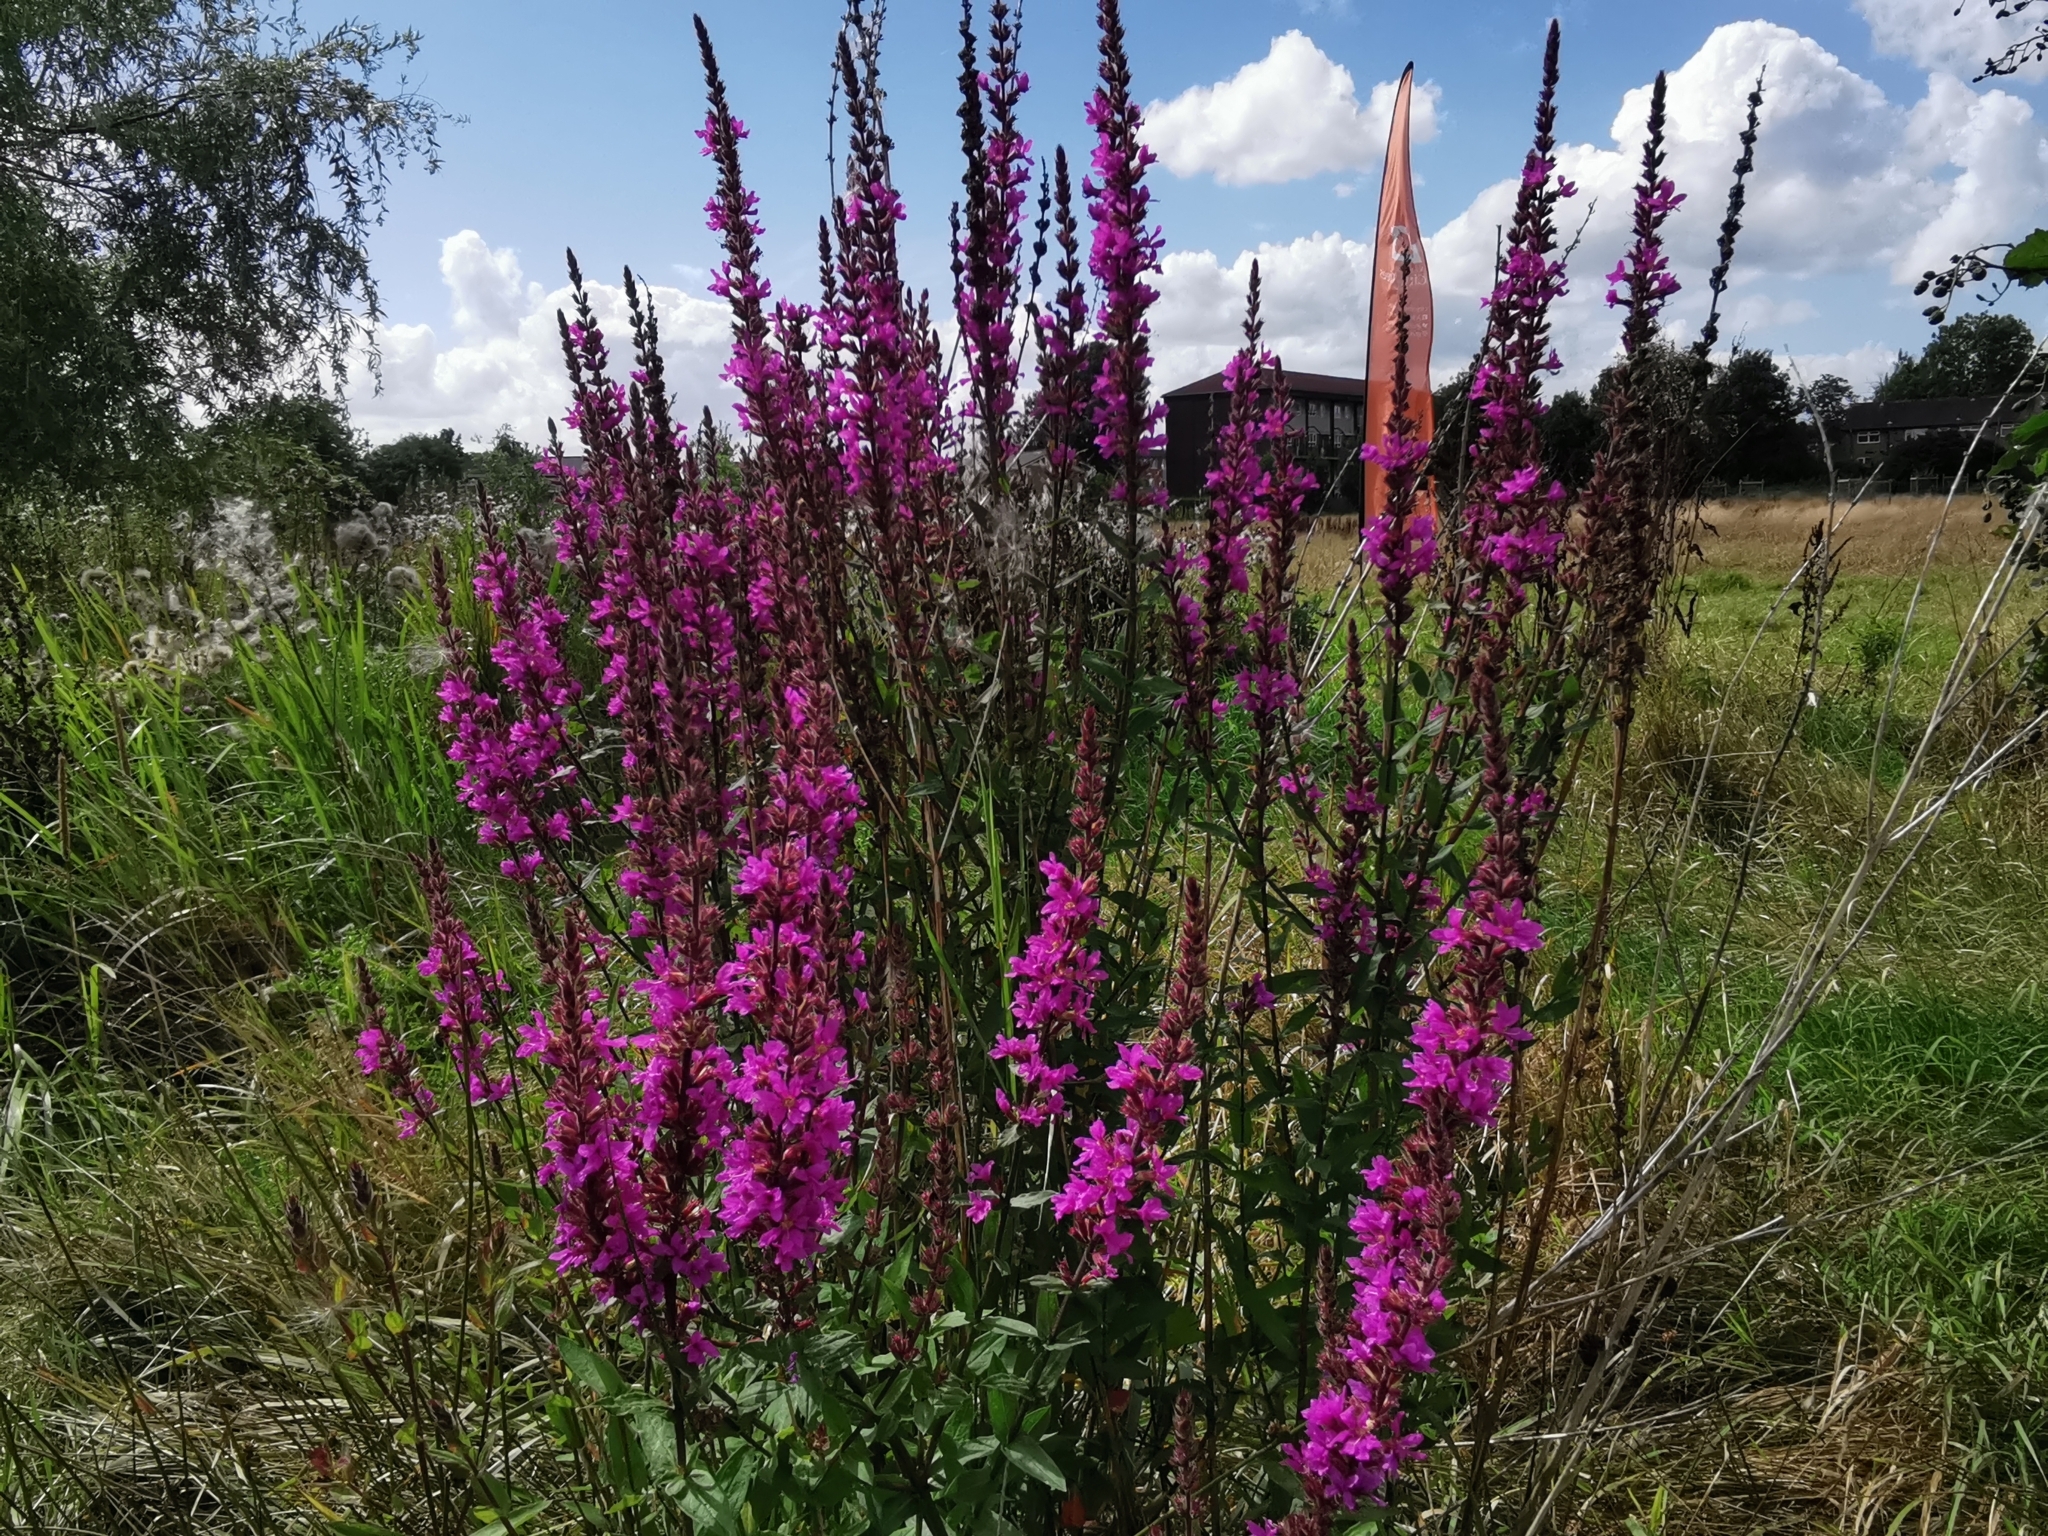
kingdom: Plantae
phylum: Tracheophyta
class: Magnoliopsida
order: Myrtales
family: Lythraceae
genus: Lythrum
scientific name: Lythrum salicaria
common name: Purple loosestrife
